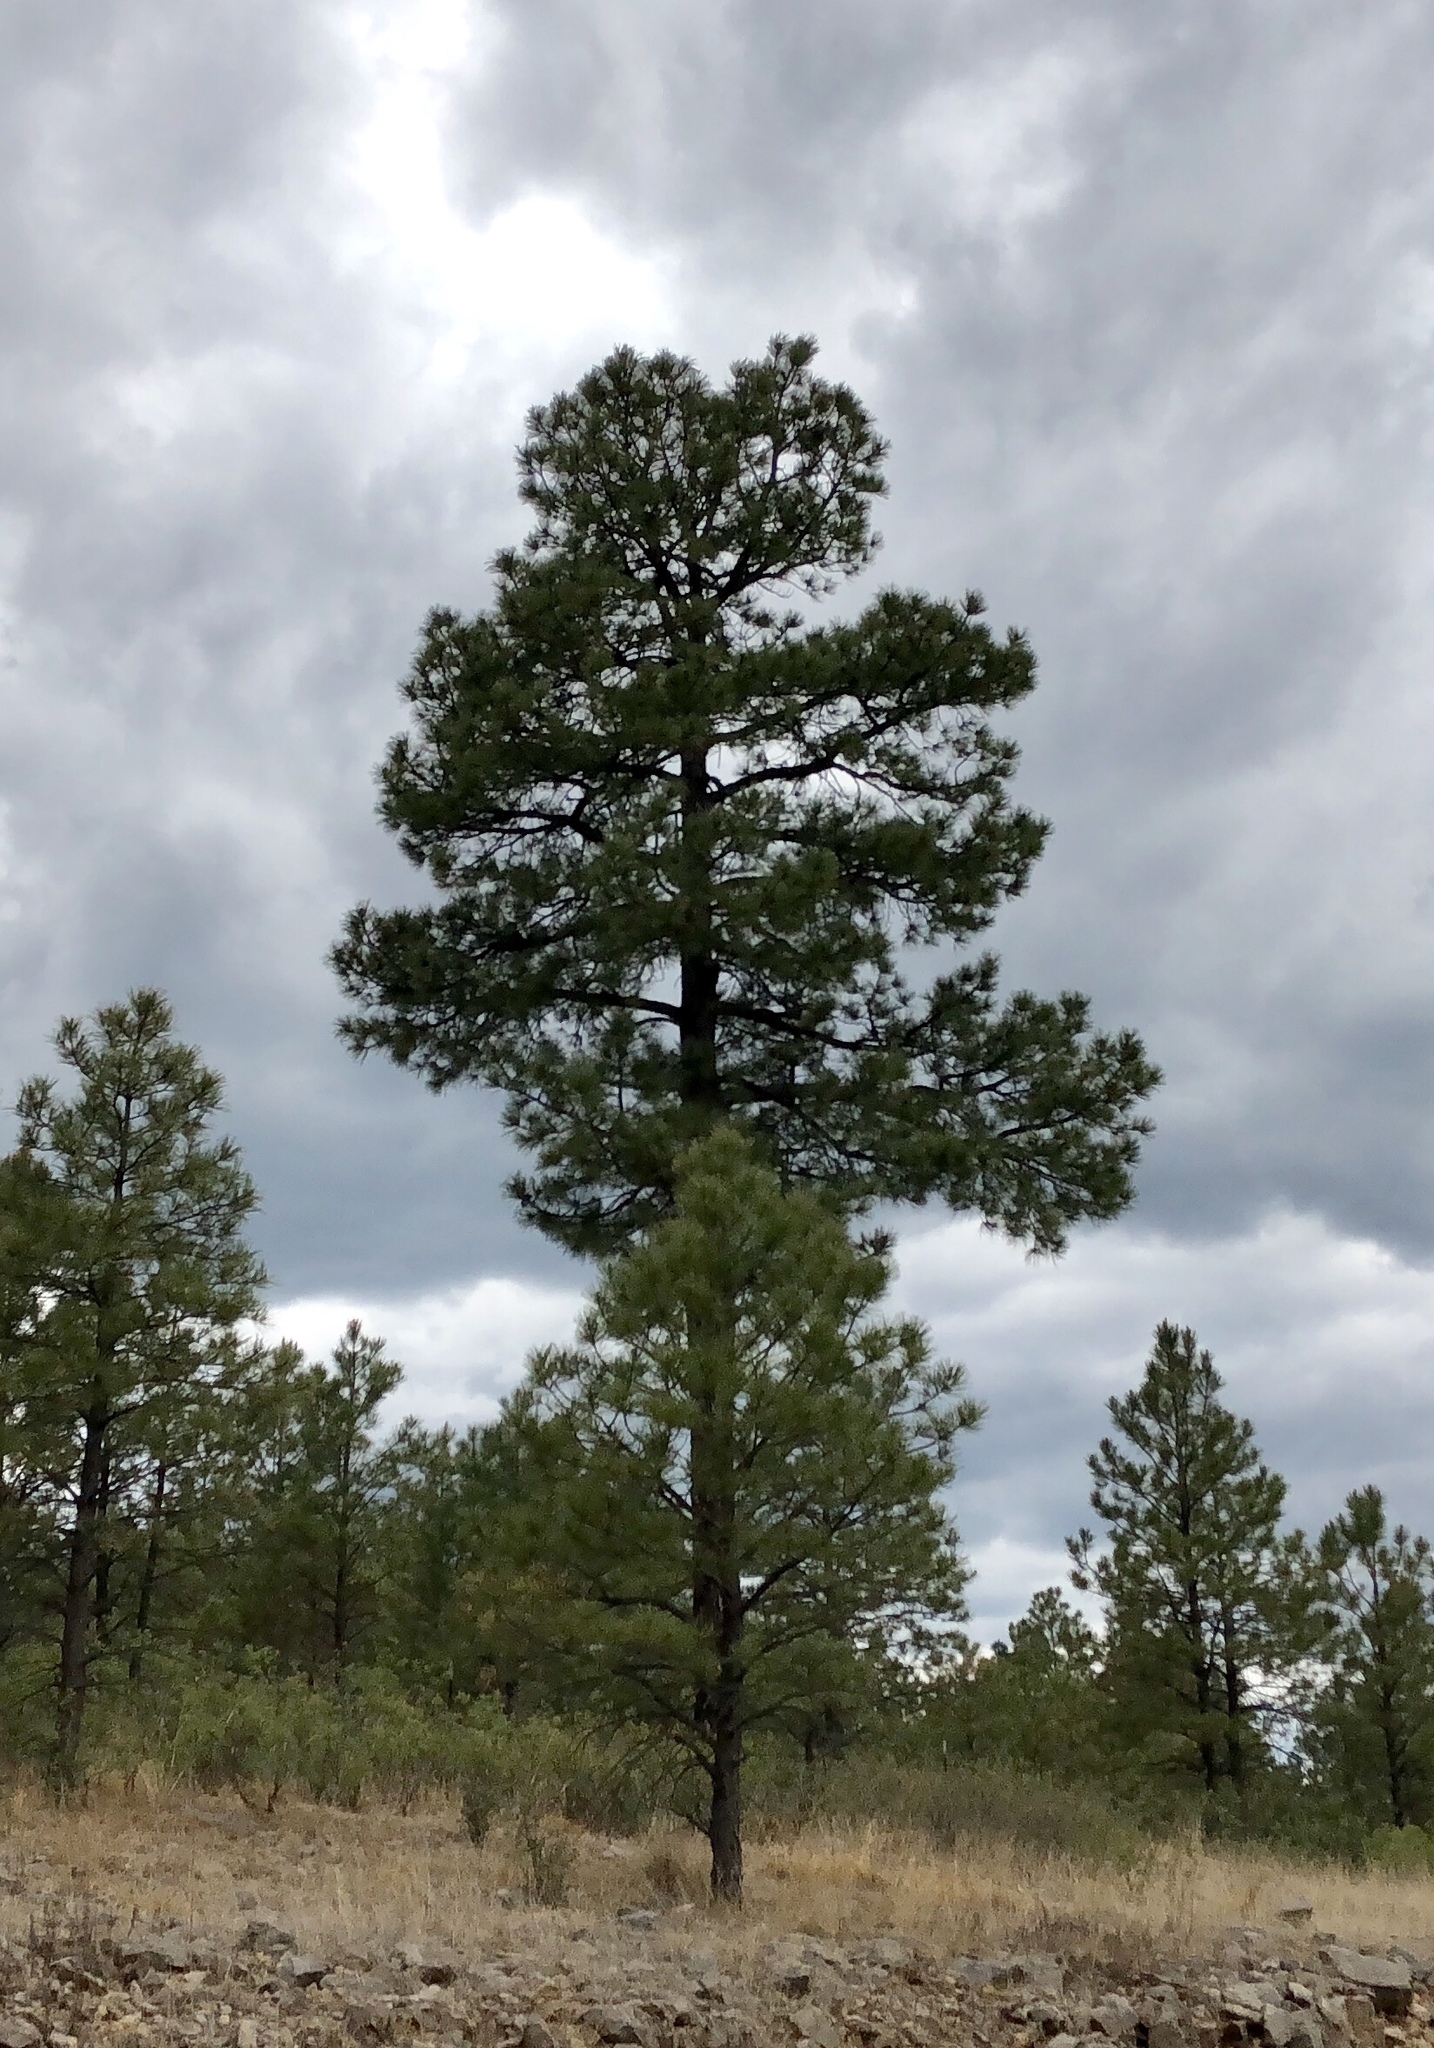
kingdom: Plantae
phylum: Tracheophyta
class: Pinopsida
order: Pinales
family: Pinaceae
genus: Pinus
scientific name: Pinus ponderosa
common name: Western yellow-pine
